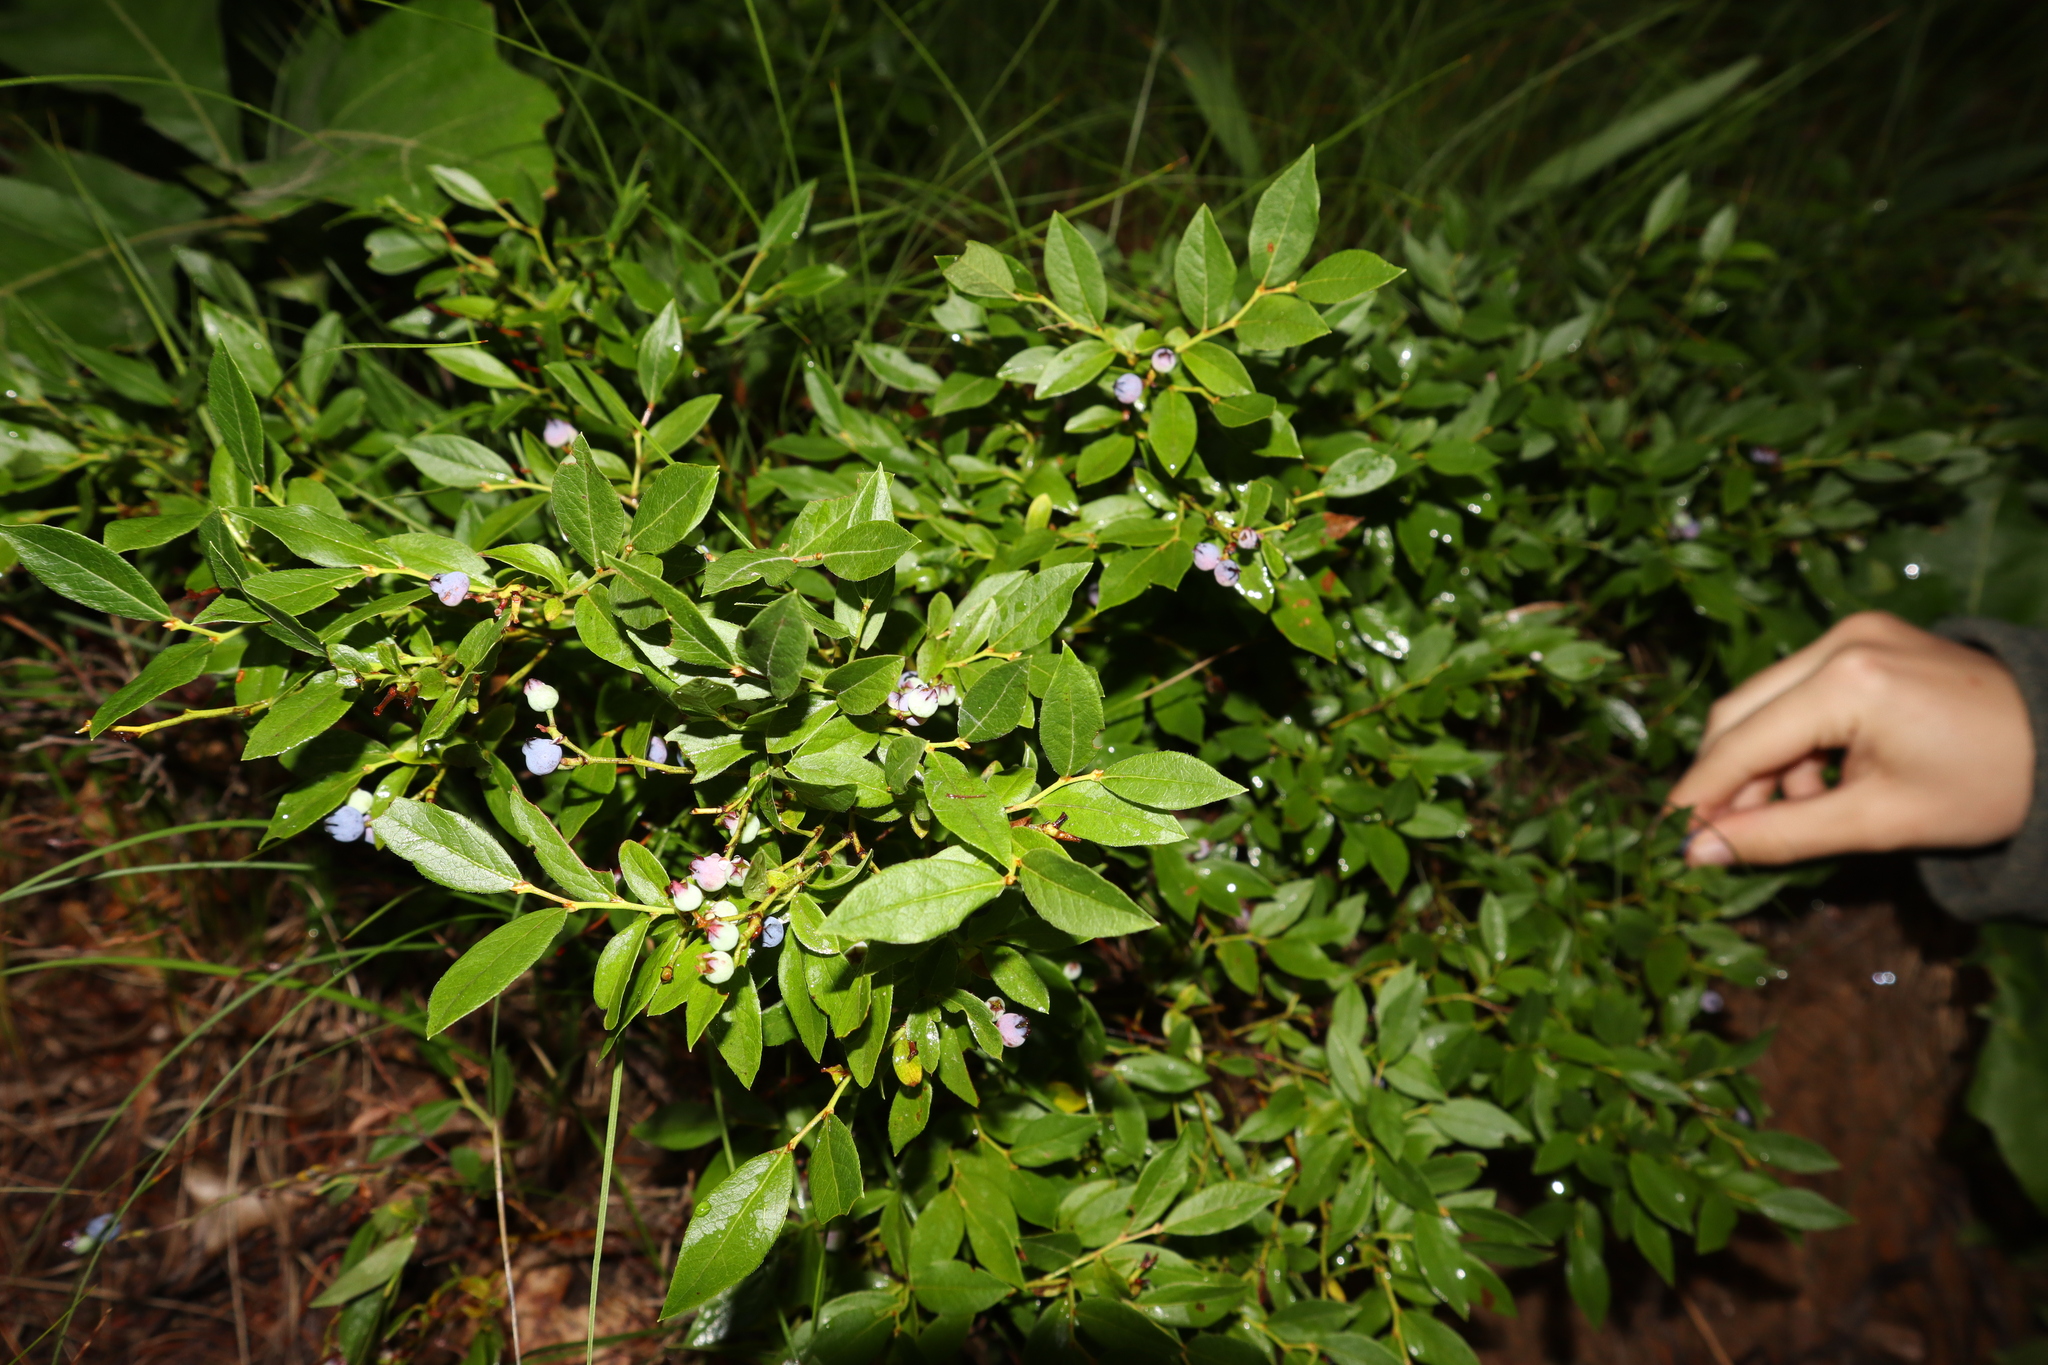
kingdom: Plantae
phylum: Tracheophyta
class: Magnoliopsida
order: Ericales
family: Ericaceae
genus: Vaccinium
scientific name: Vaccinium angustifolium
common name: Early lowbush blueberry
